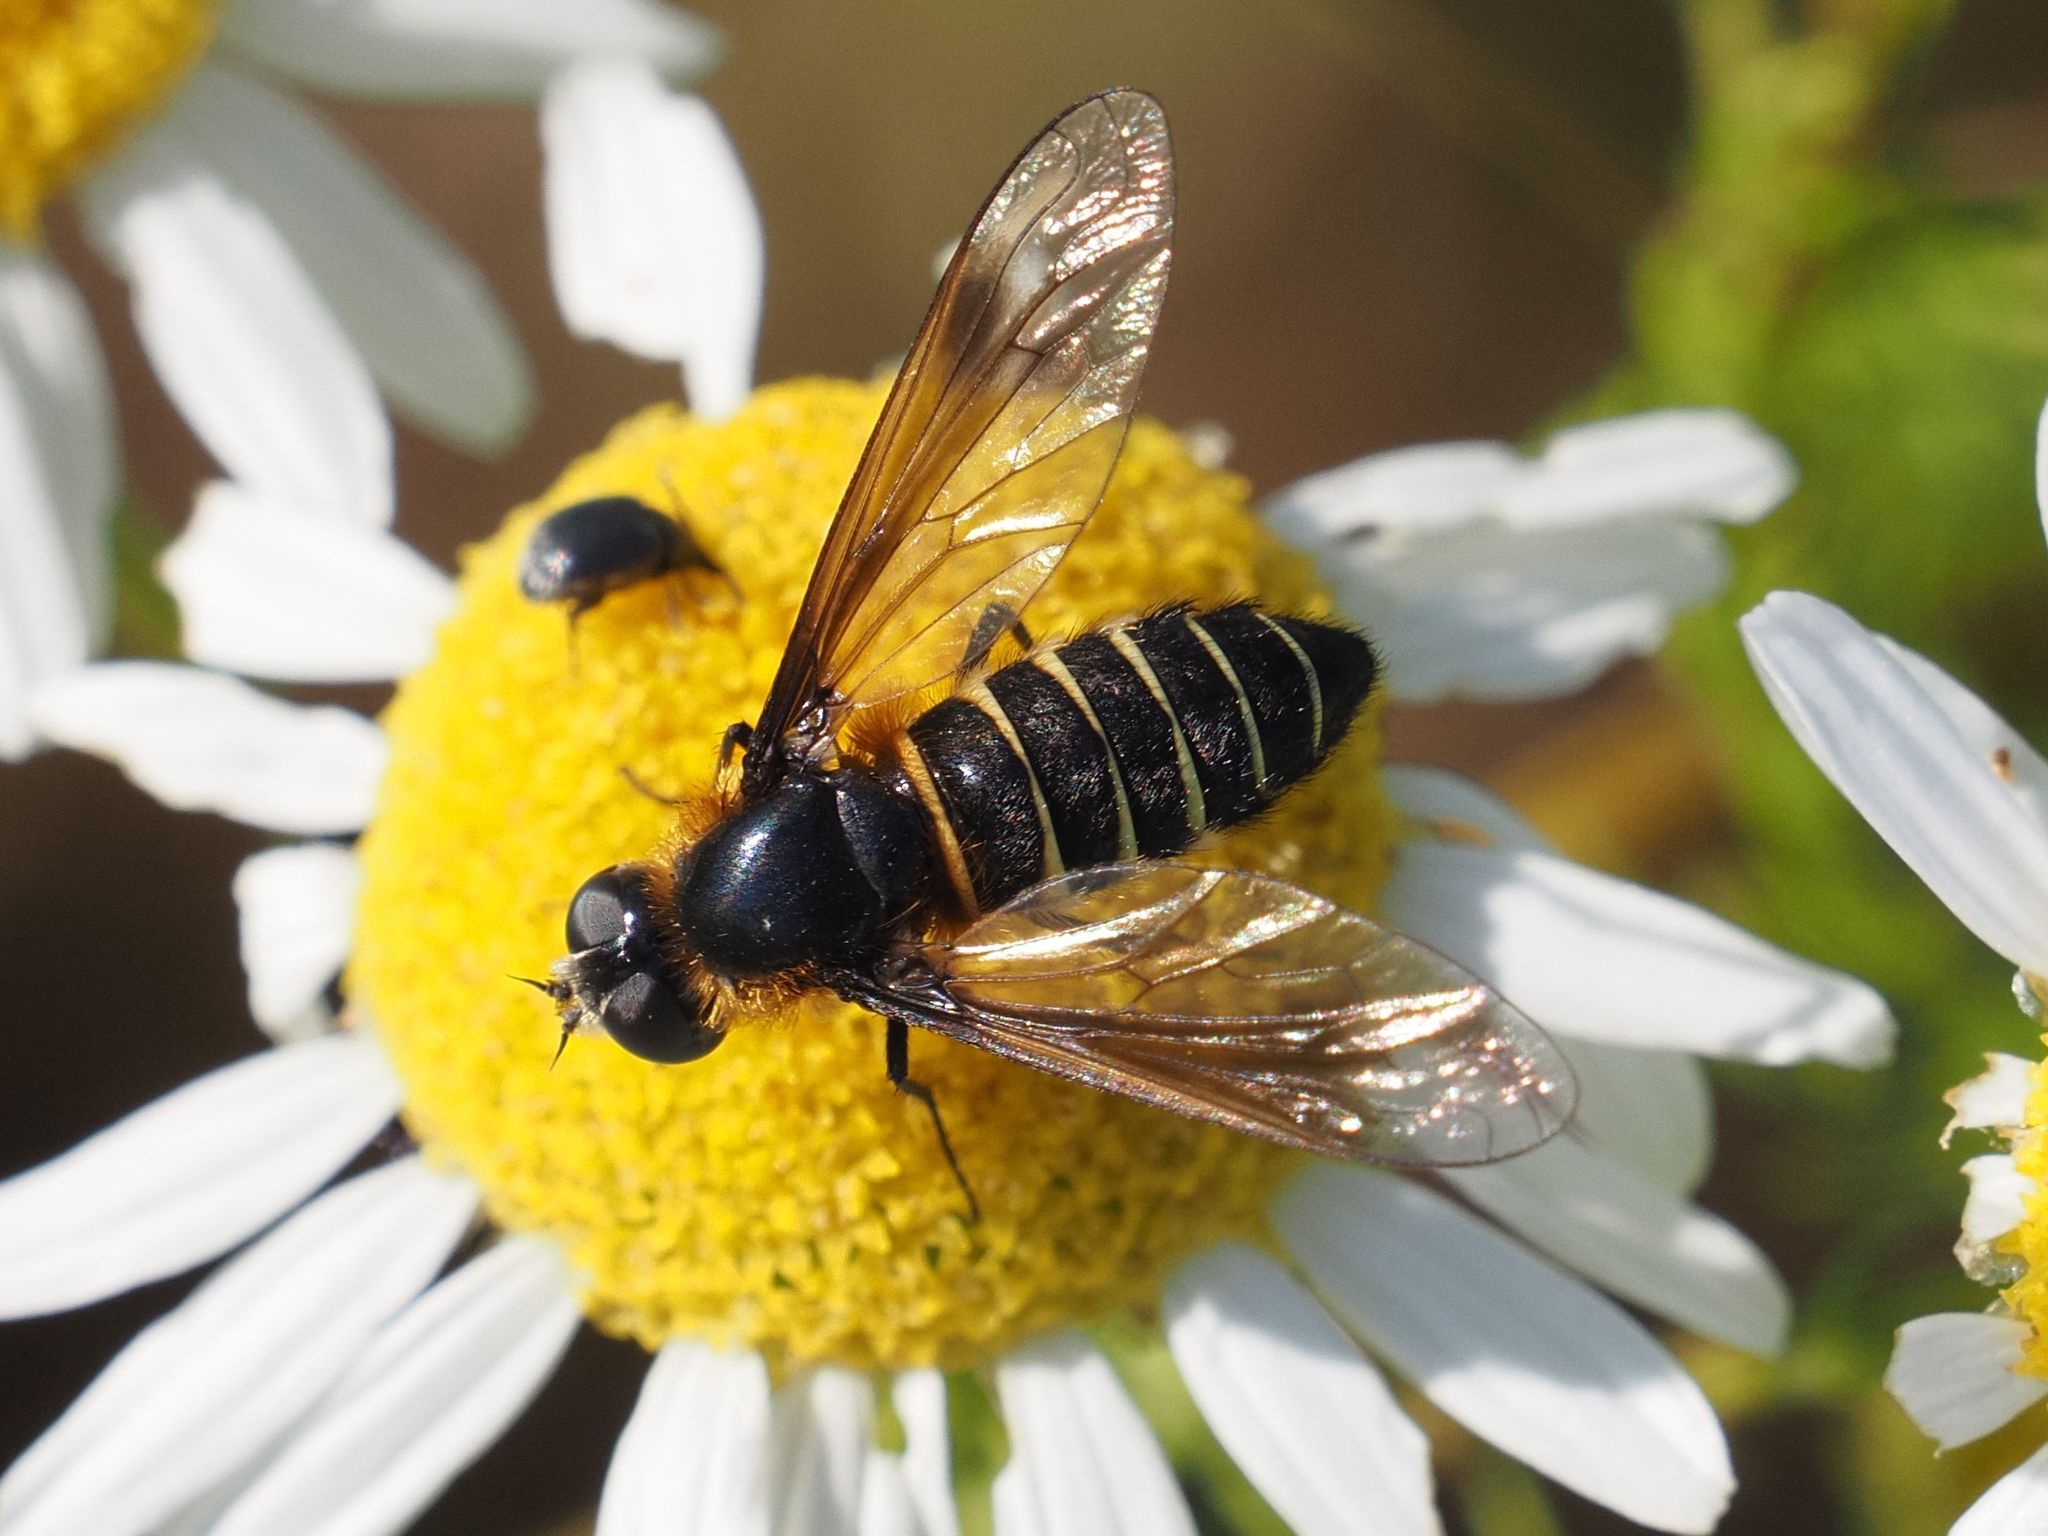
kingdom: Animalia
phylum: Arthropoda
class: Insecta
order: Diptera
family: Bombyliidae
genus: Lomatia
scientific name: Lomatia sabaea
